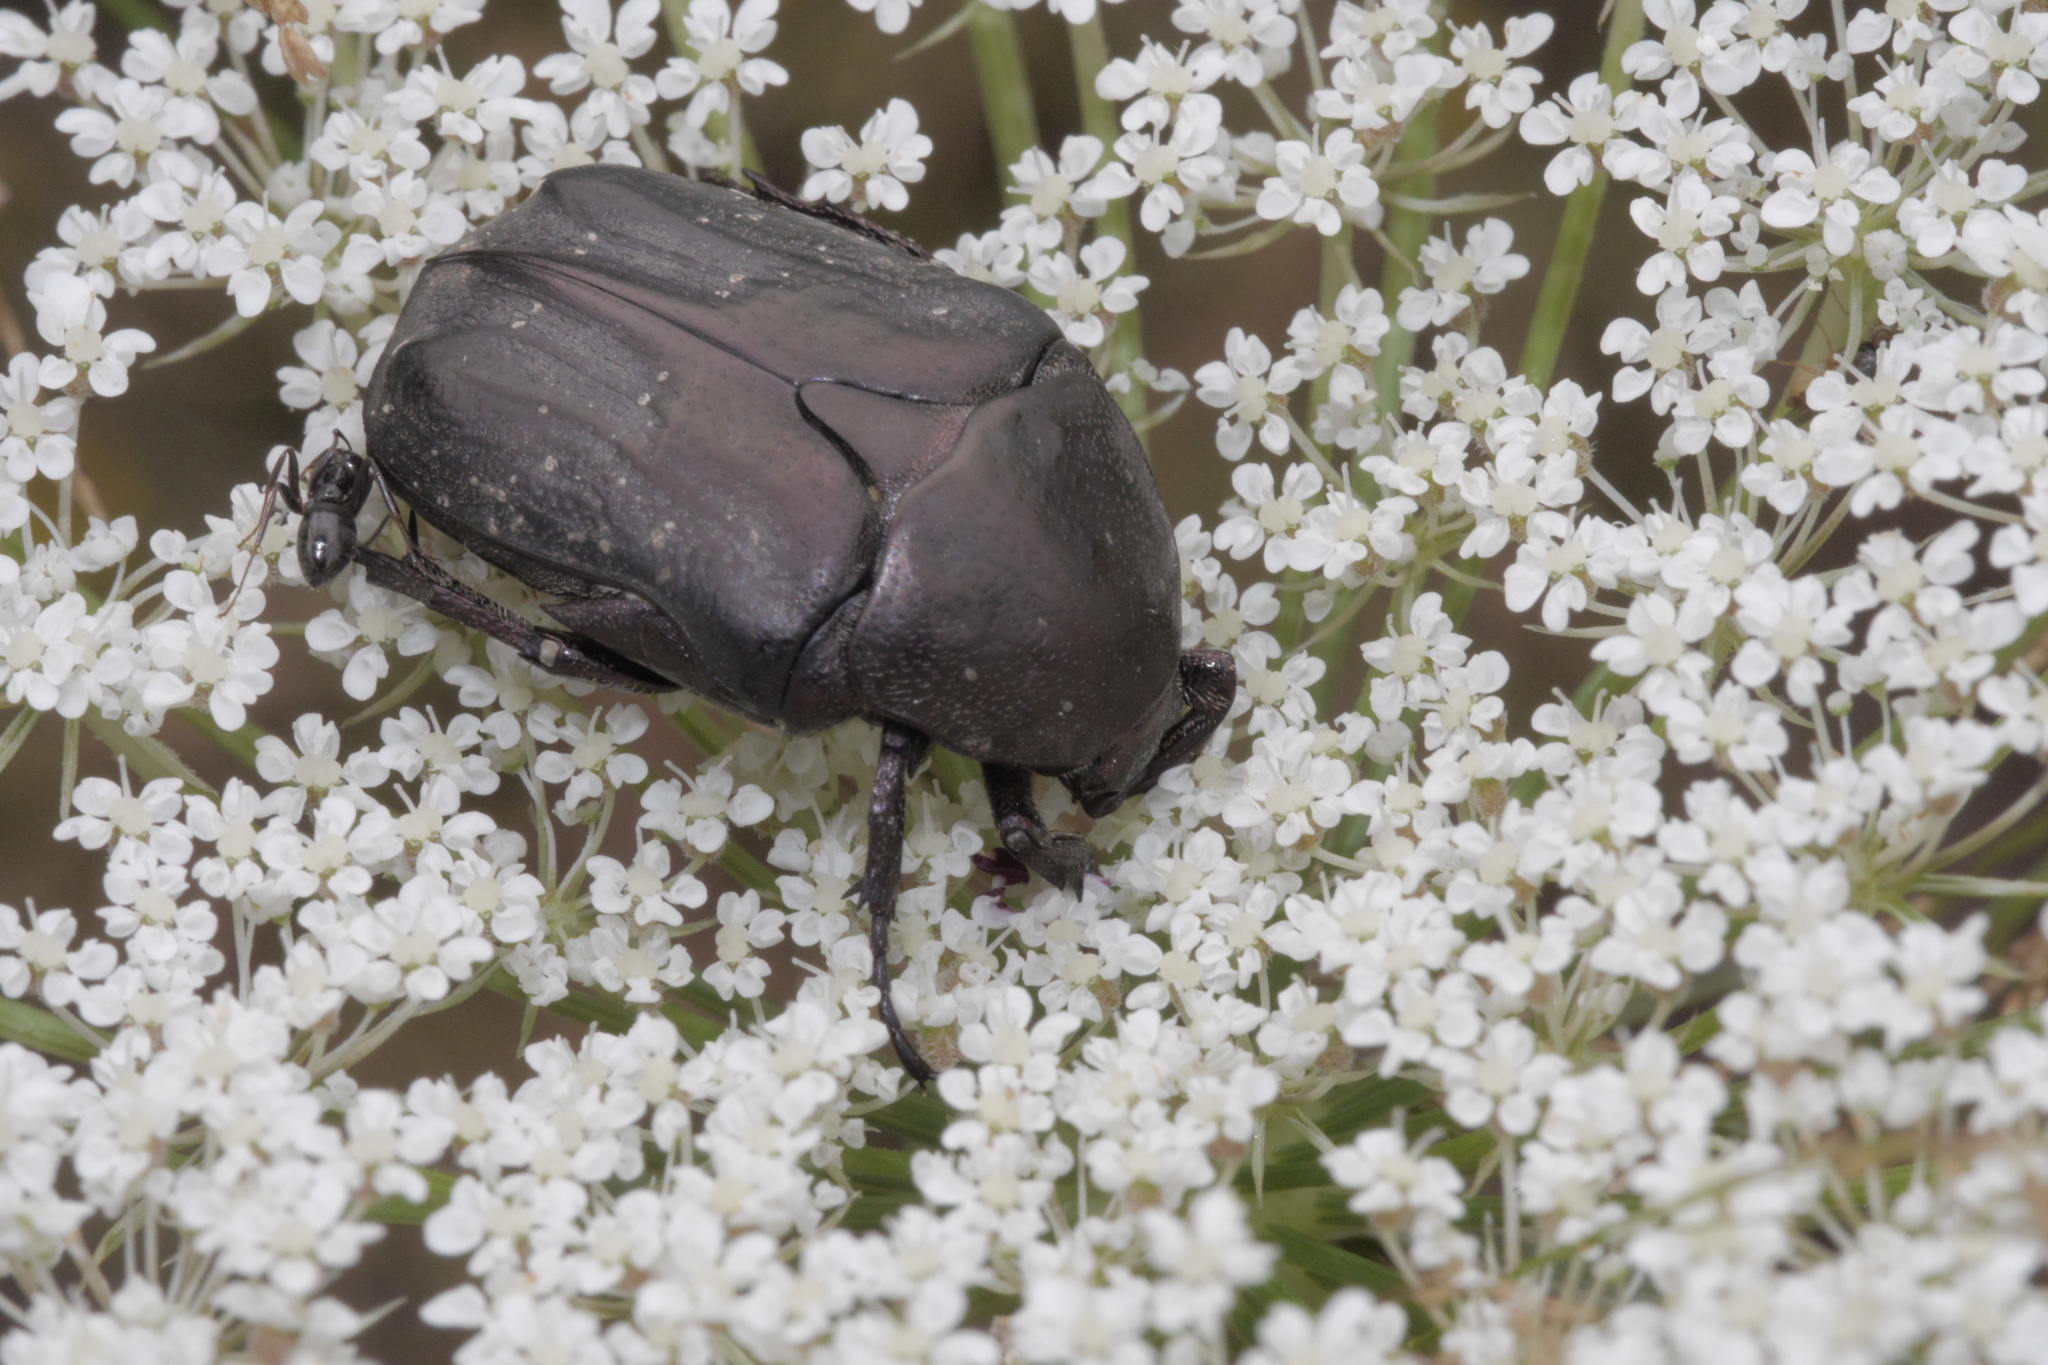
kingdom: Animalia
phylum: Arthropoda
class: Insecta
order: Coleoptera
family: Scarabaeidae
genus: Protaetia
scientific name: Protaetia morio
